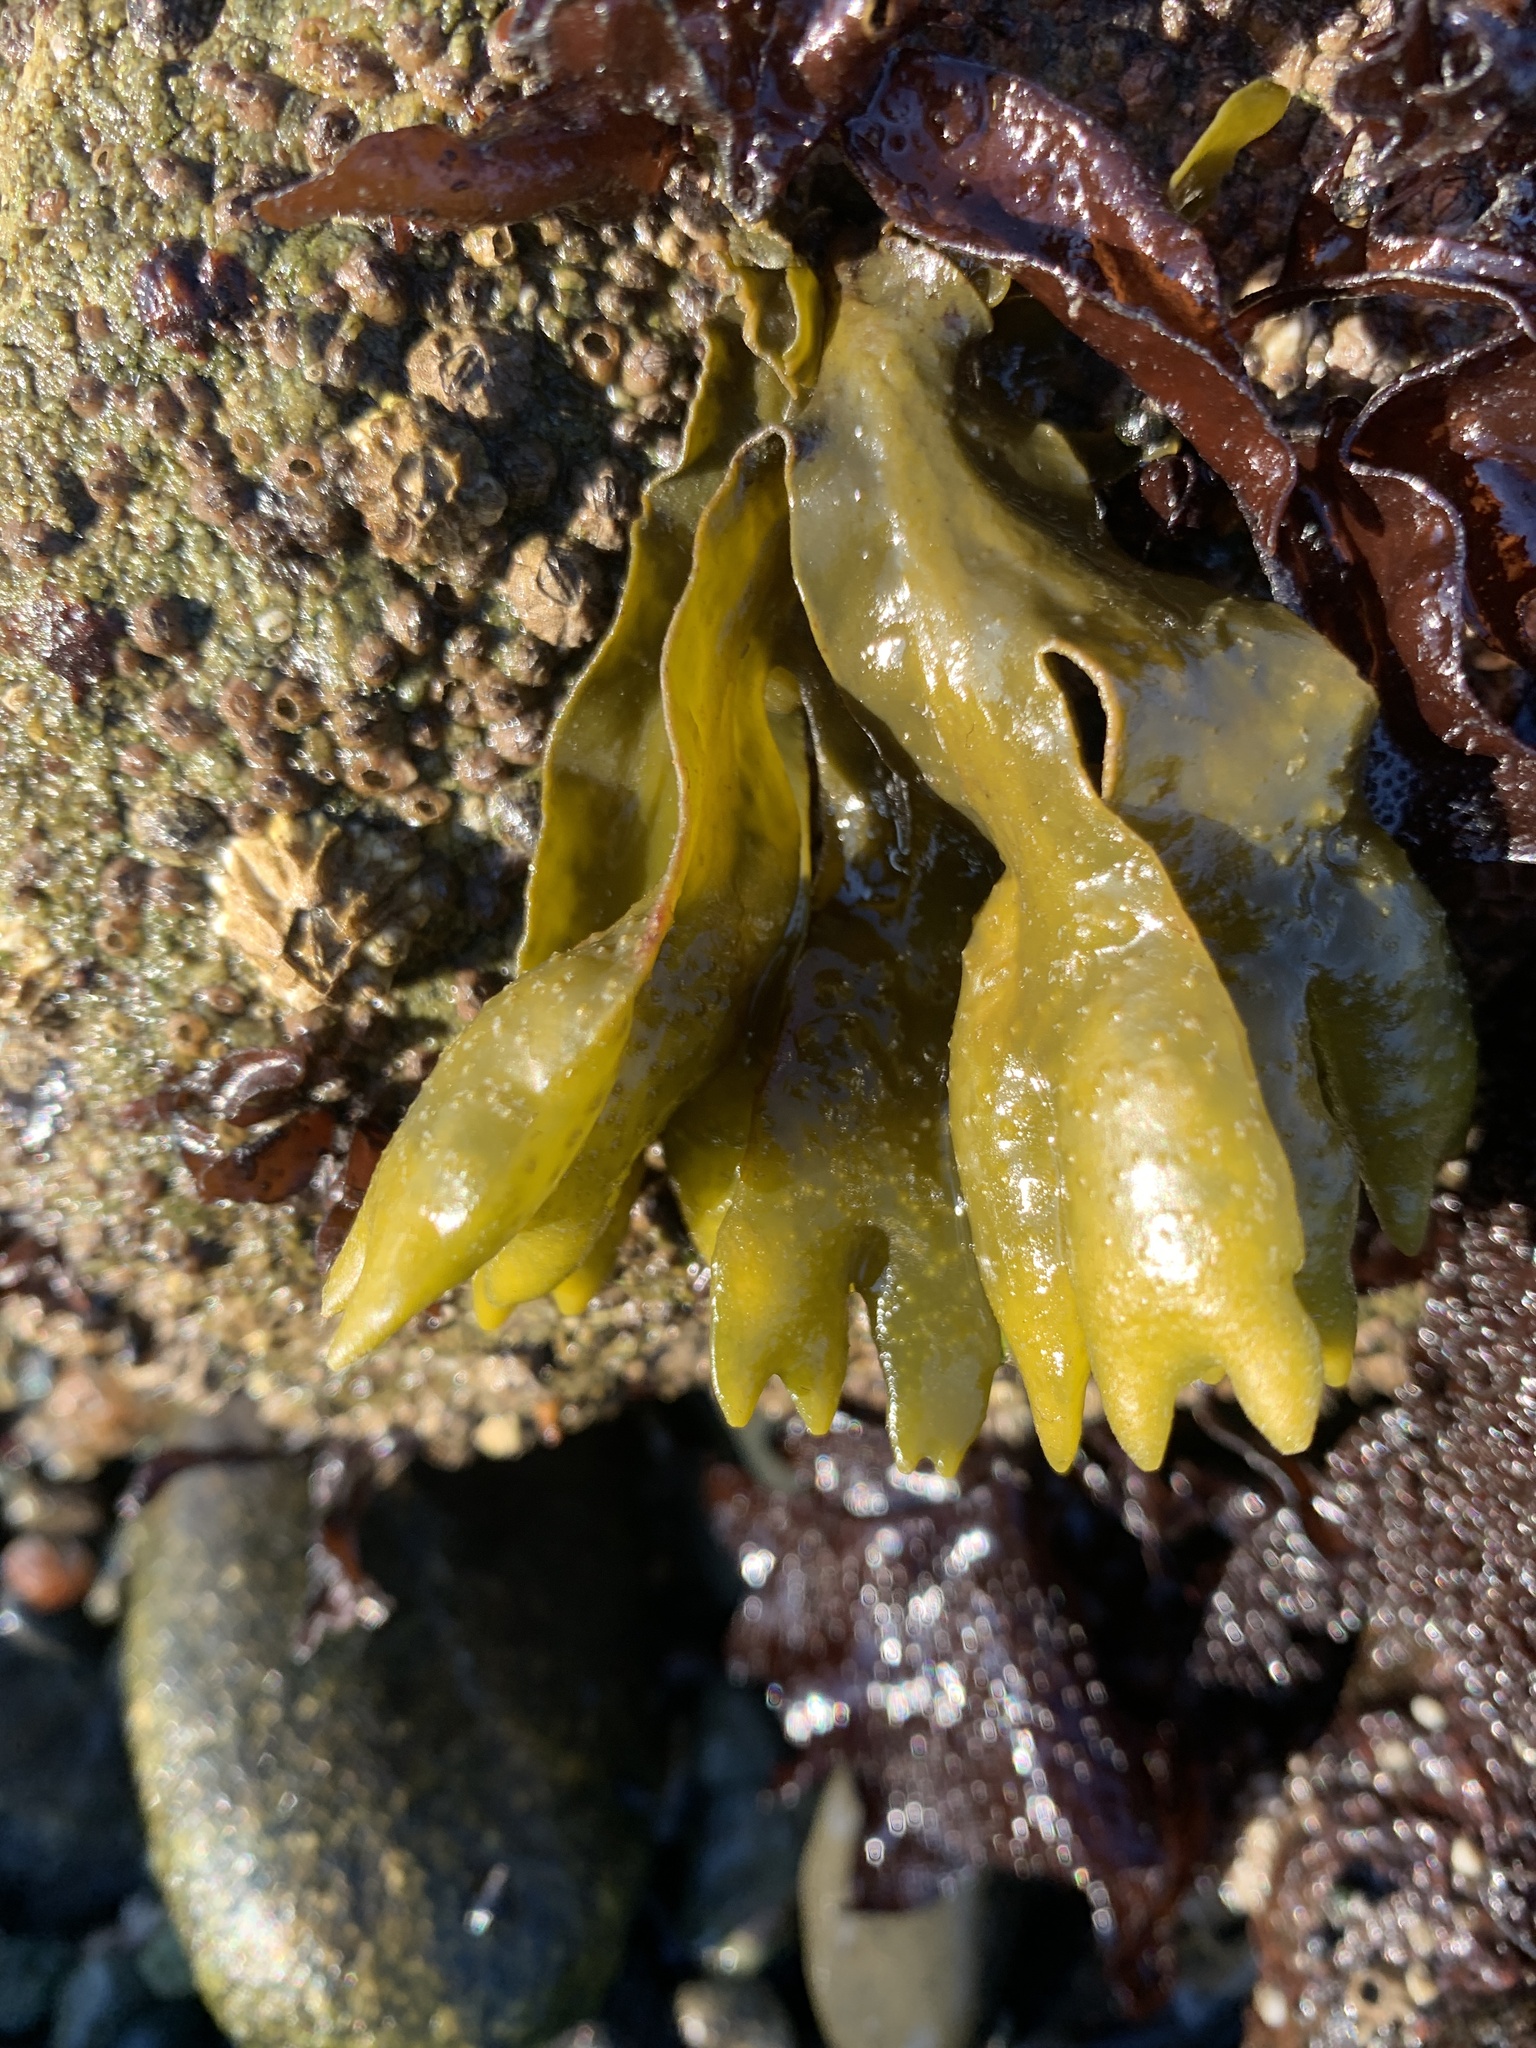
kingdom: Chromista
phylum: Ochrophyta
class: Phaeophyceae
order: Fucales
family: Fucaceae
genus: Fucus
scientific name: Fucus distichus
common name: Rockweed
